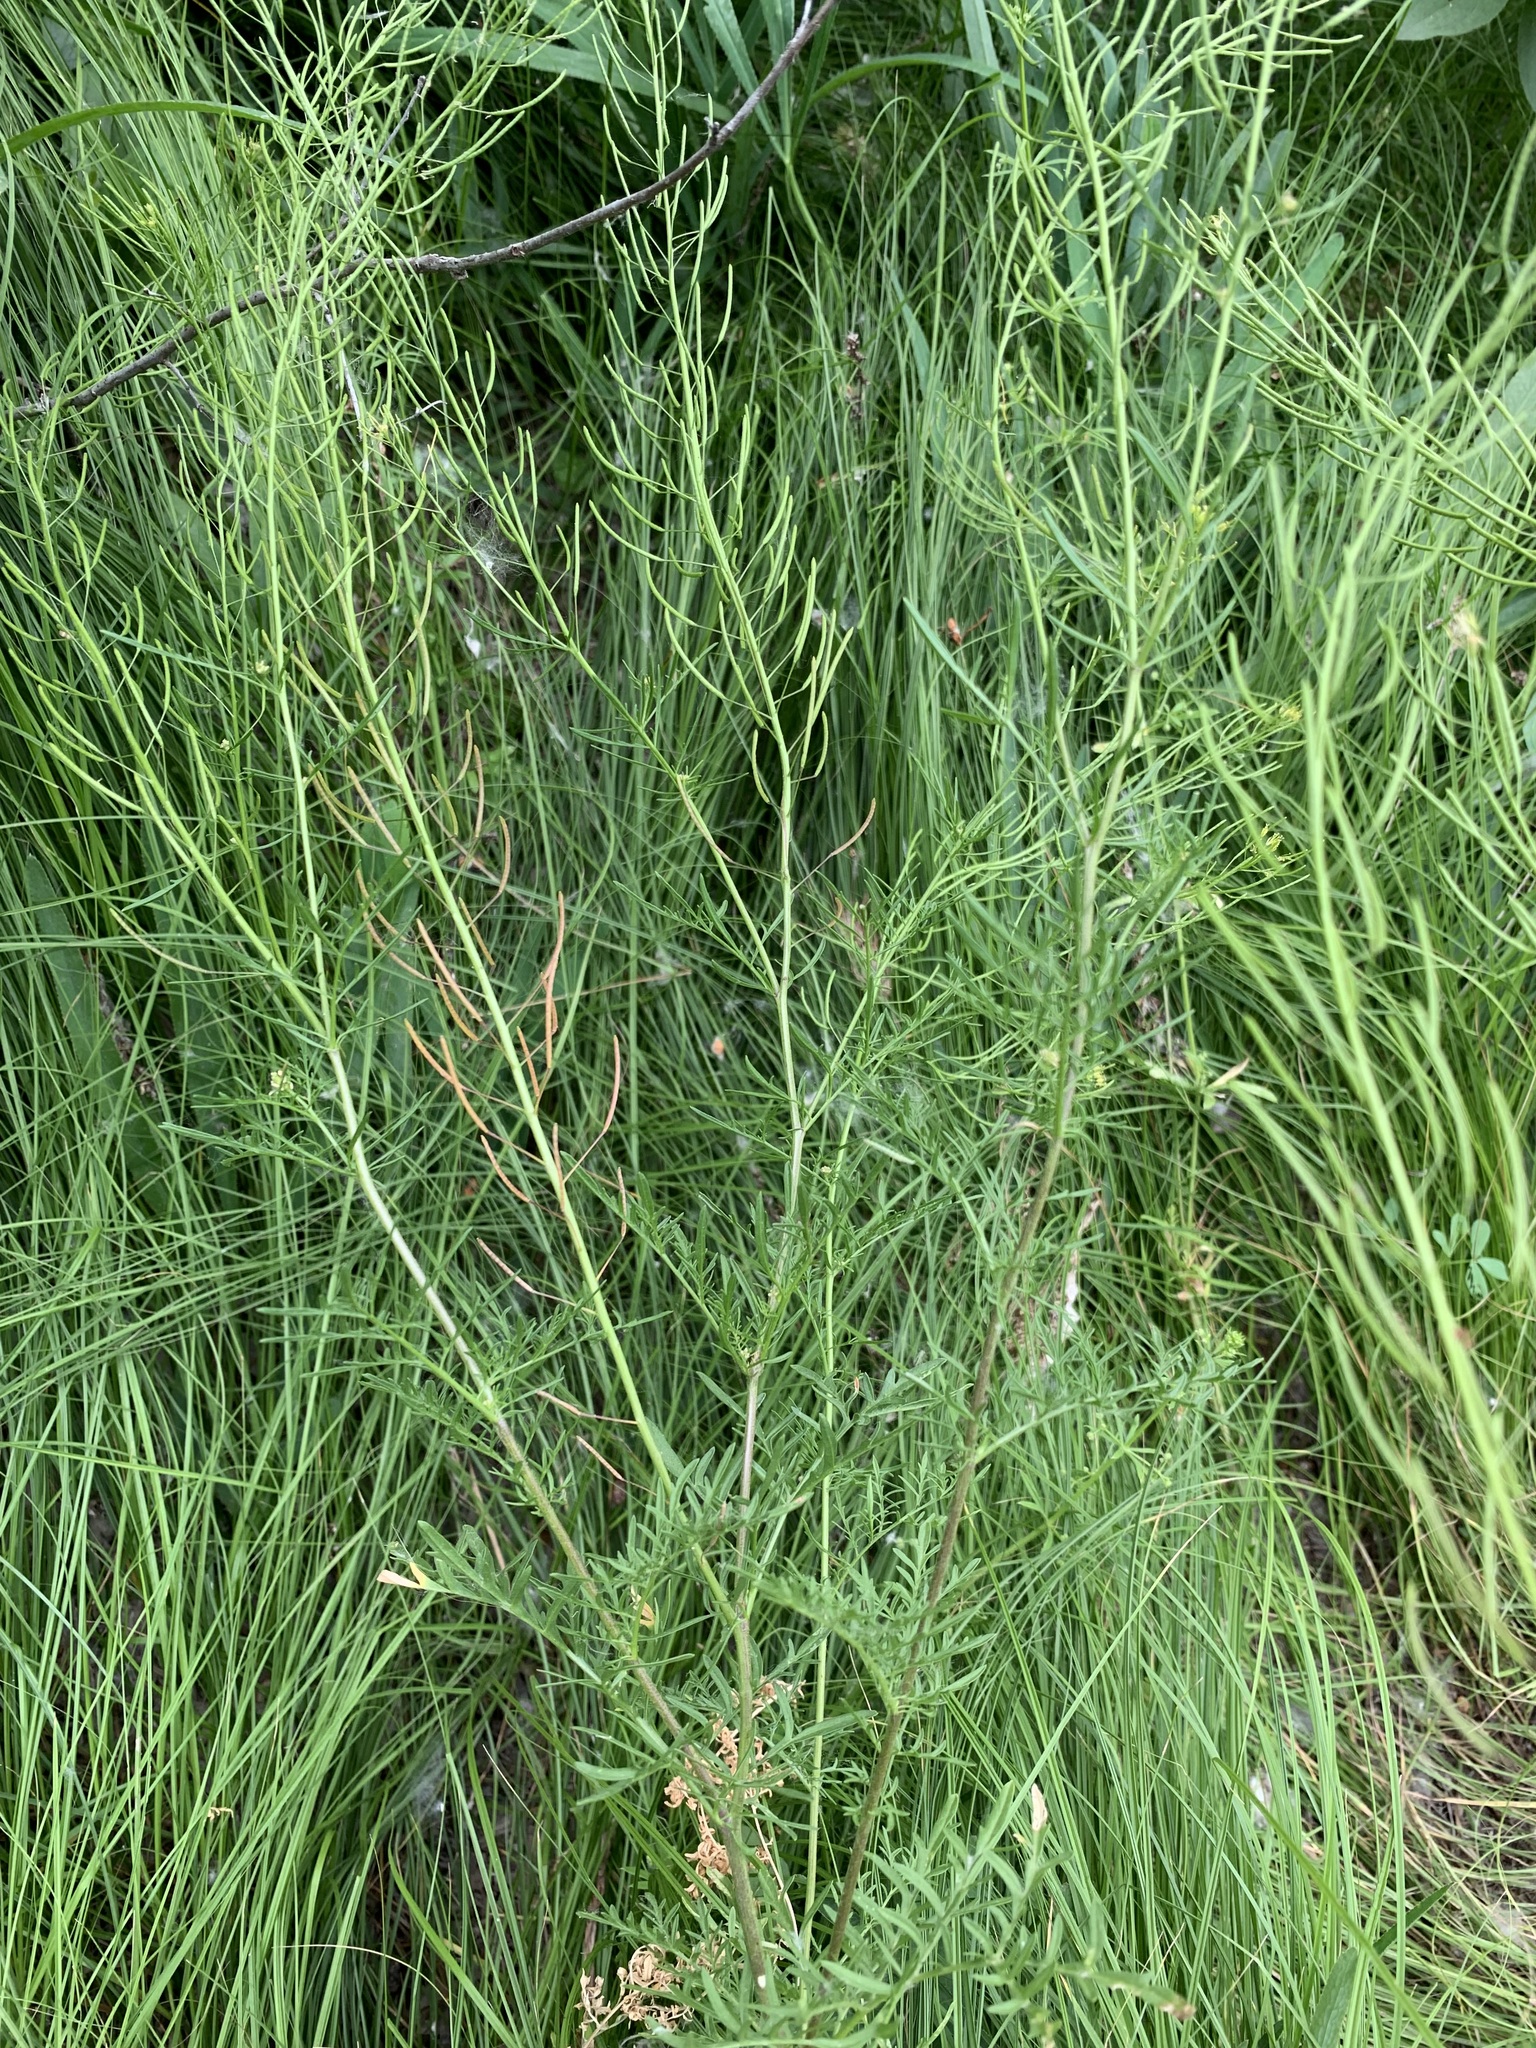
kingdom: Plantae
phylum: Tracheophyta
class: Magnoliopsida
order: Brassicales
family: Brassicaceae
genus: Descurainia
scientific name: Descurainia sophia
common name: Flixweed
